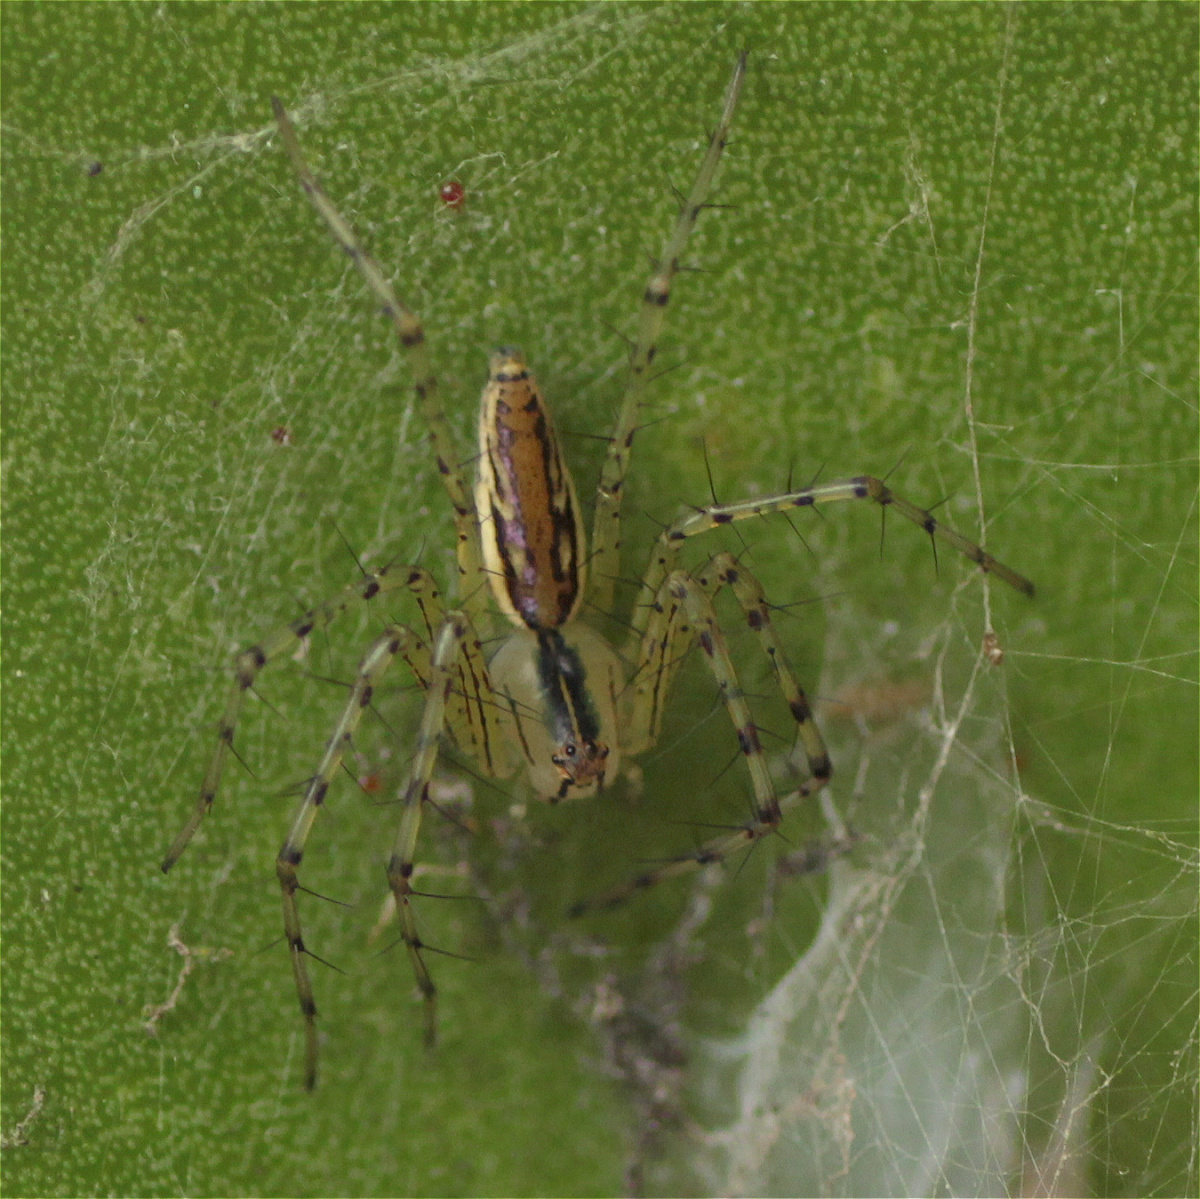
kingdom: Animalia
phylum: Arthropoda
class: Arachnida
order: Araneae
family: Oxyopidae
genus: Peucetia
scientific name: Peucetia rubrolineata
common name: Lynx spiders
